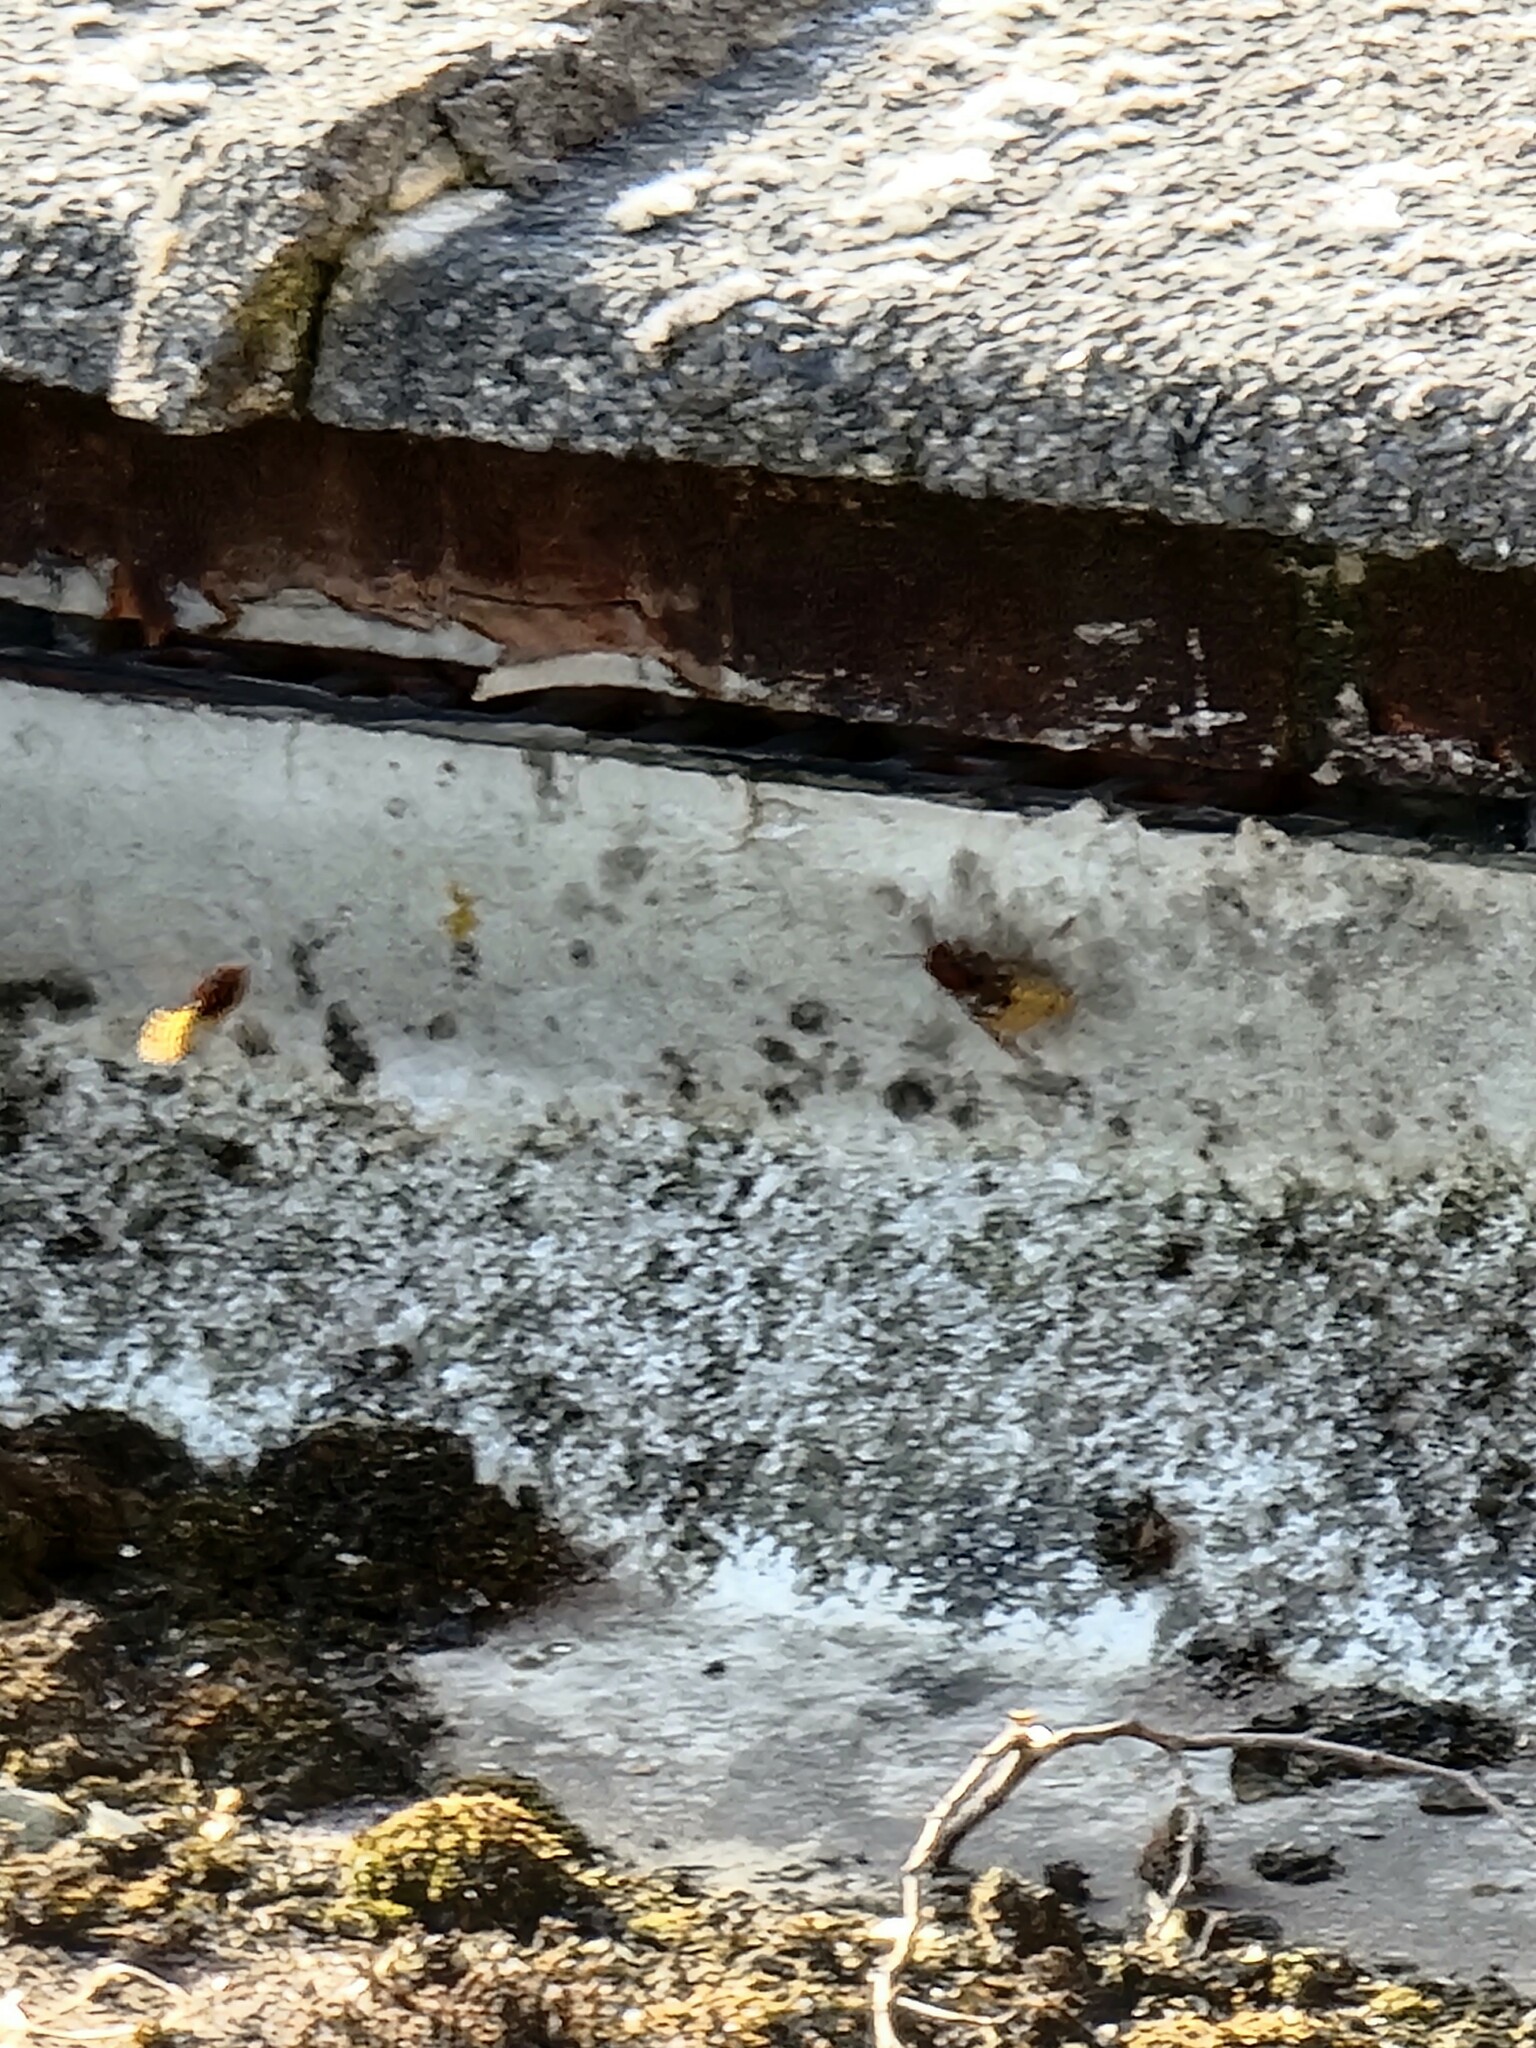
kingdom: Animalia
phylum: Arthropoda
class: Insecta
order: Hymenoptera
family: Vespidae
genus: Vespa
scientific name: Vespa crabro
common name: Hornet
